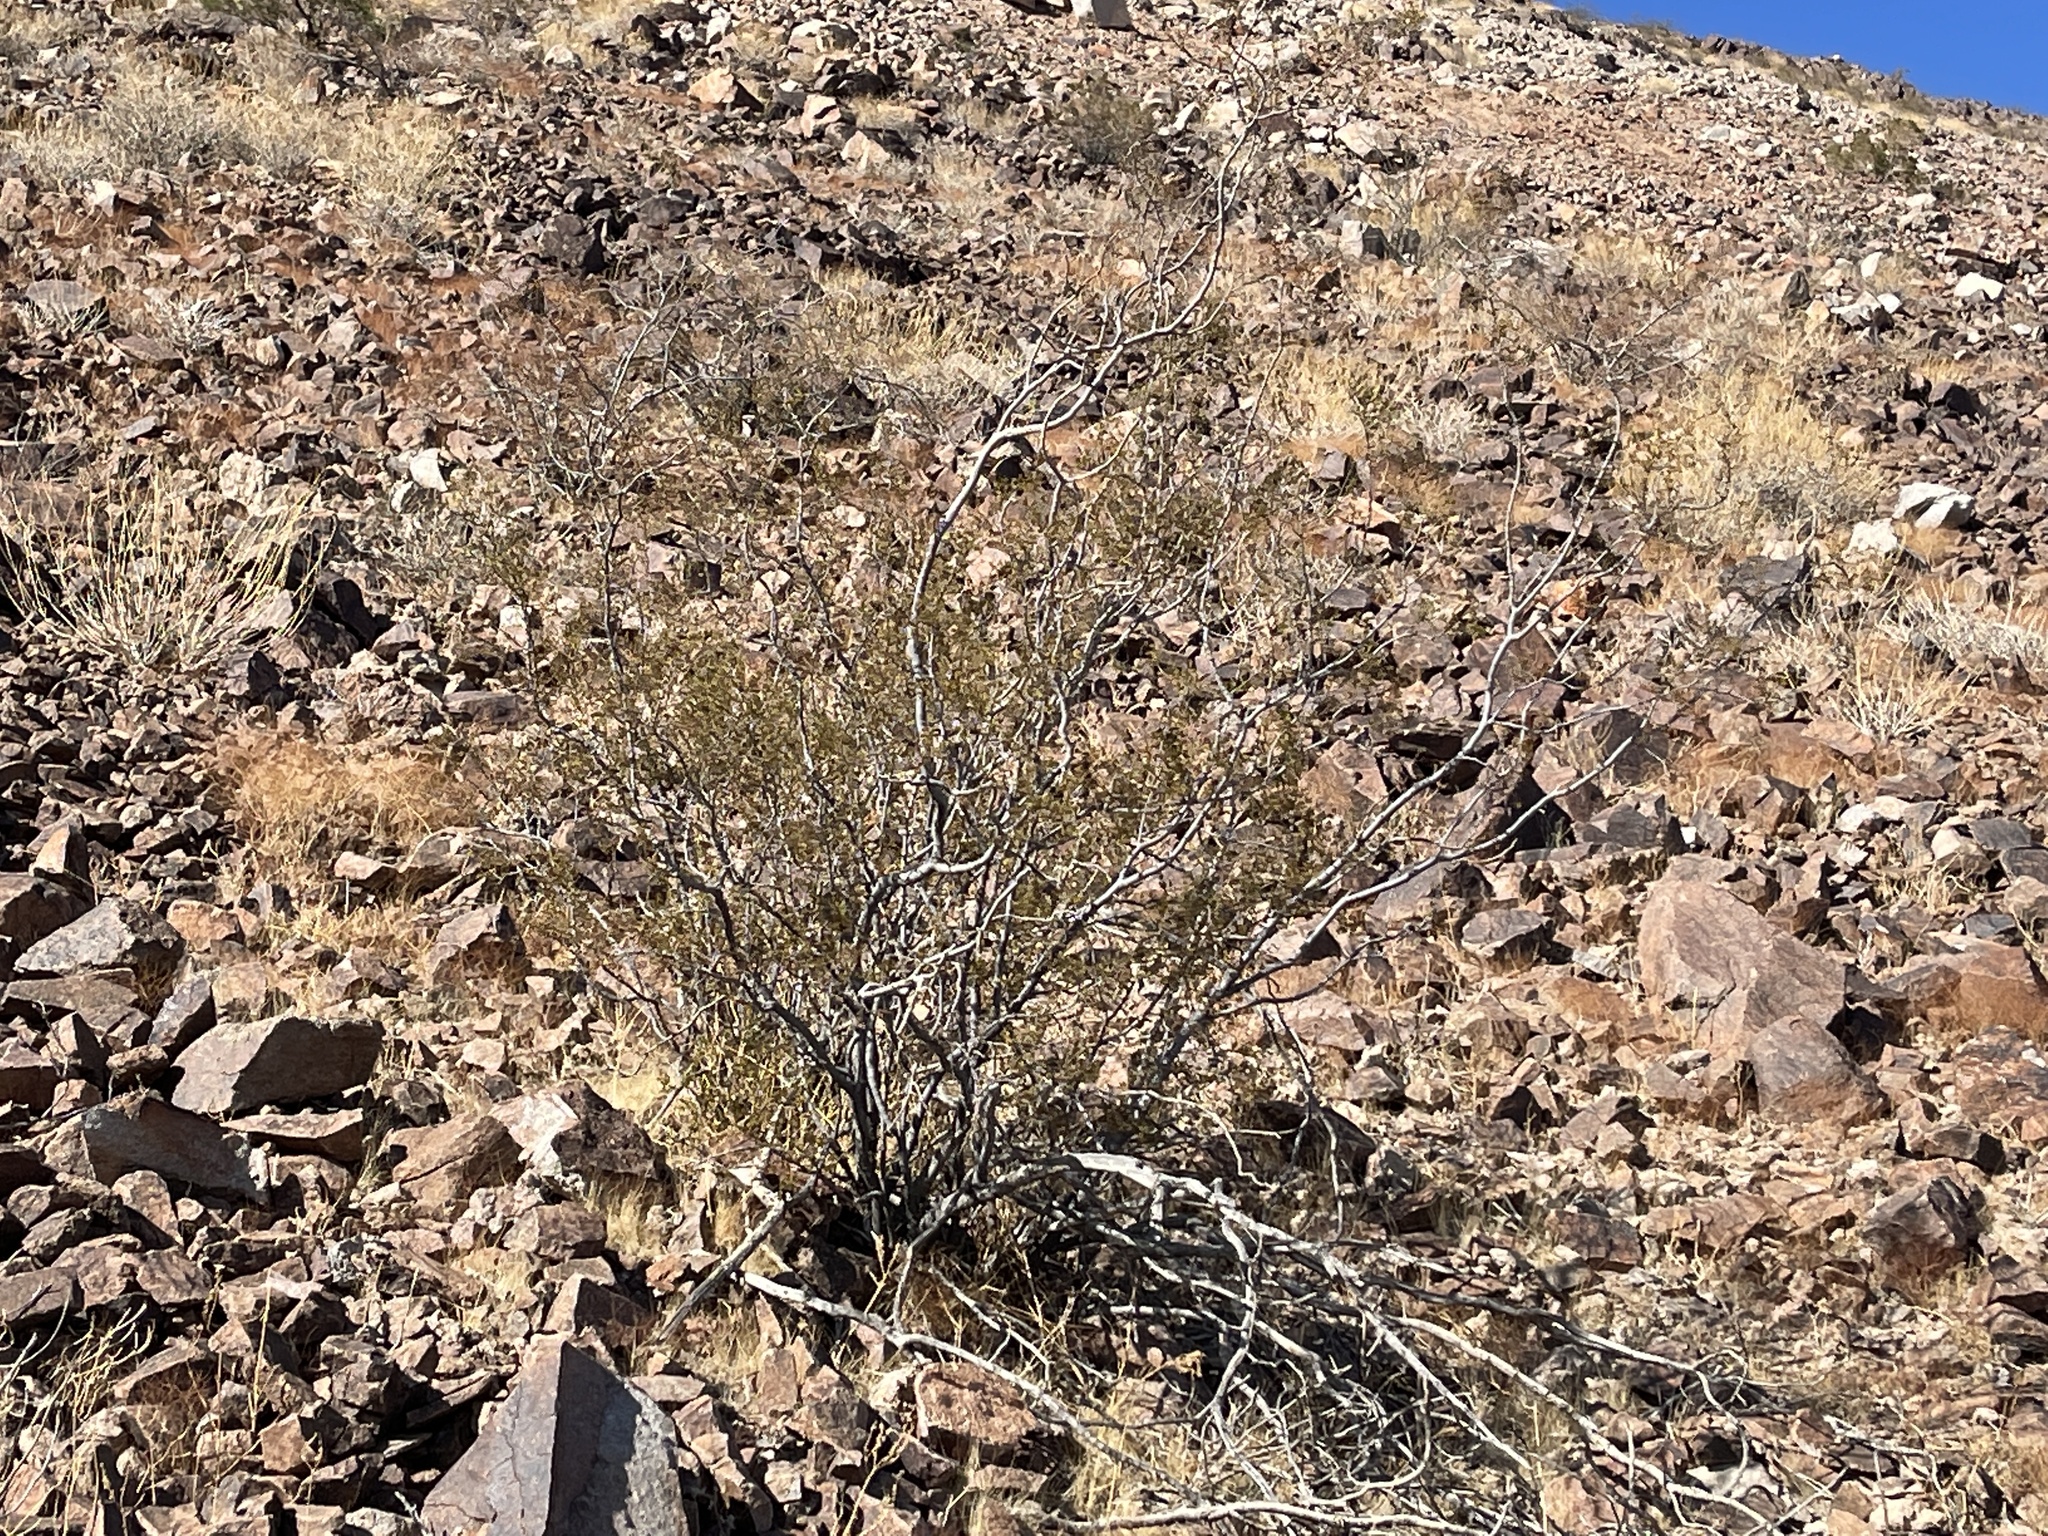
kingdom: Plantae
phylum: Tracheophyta
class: Magnoliopsida
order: Zygophyllales
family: Zygophyllaceae
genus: Larrea
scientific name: Larrea tridentata
